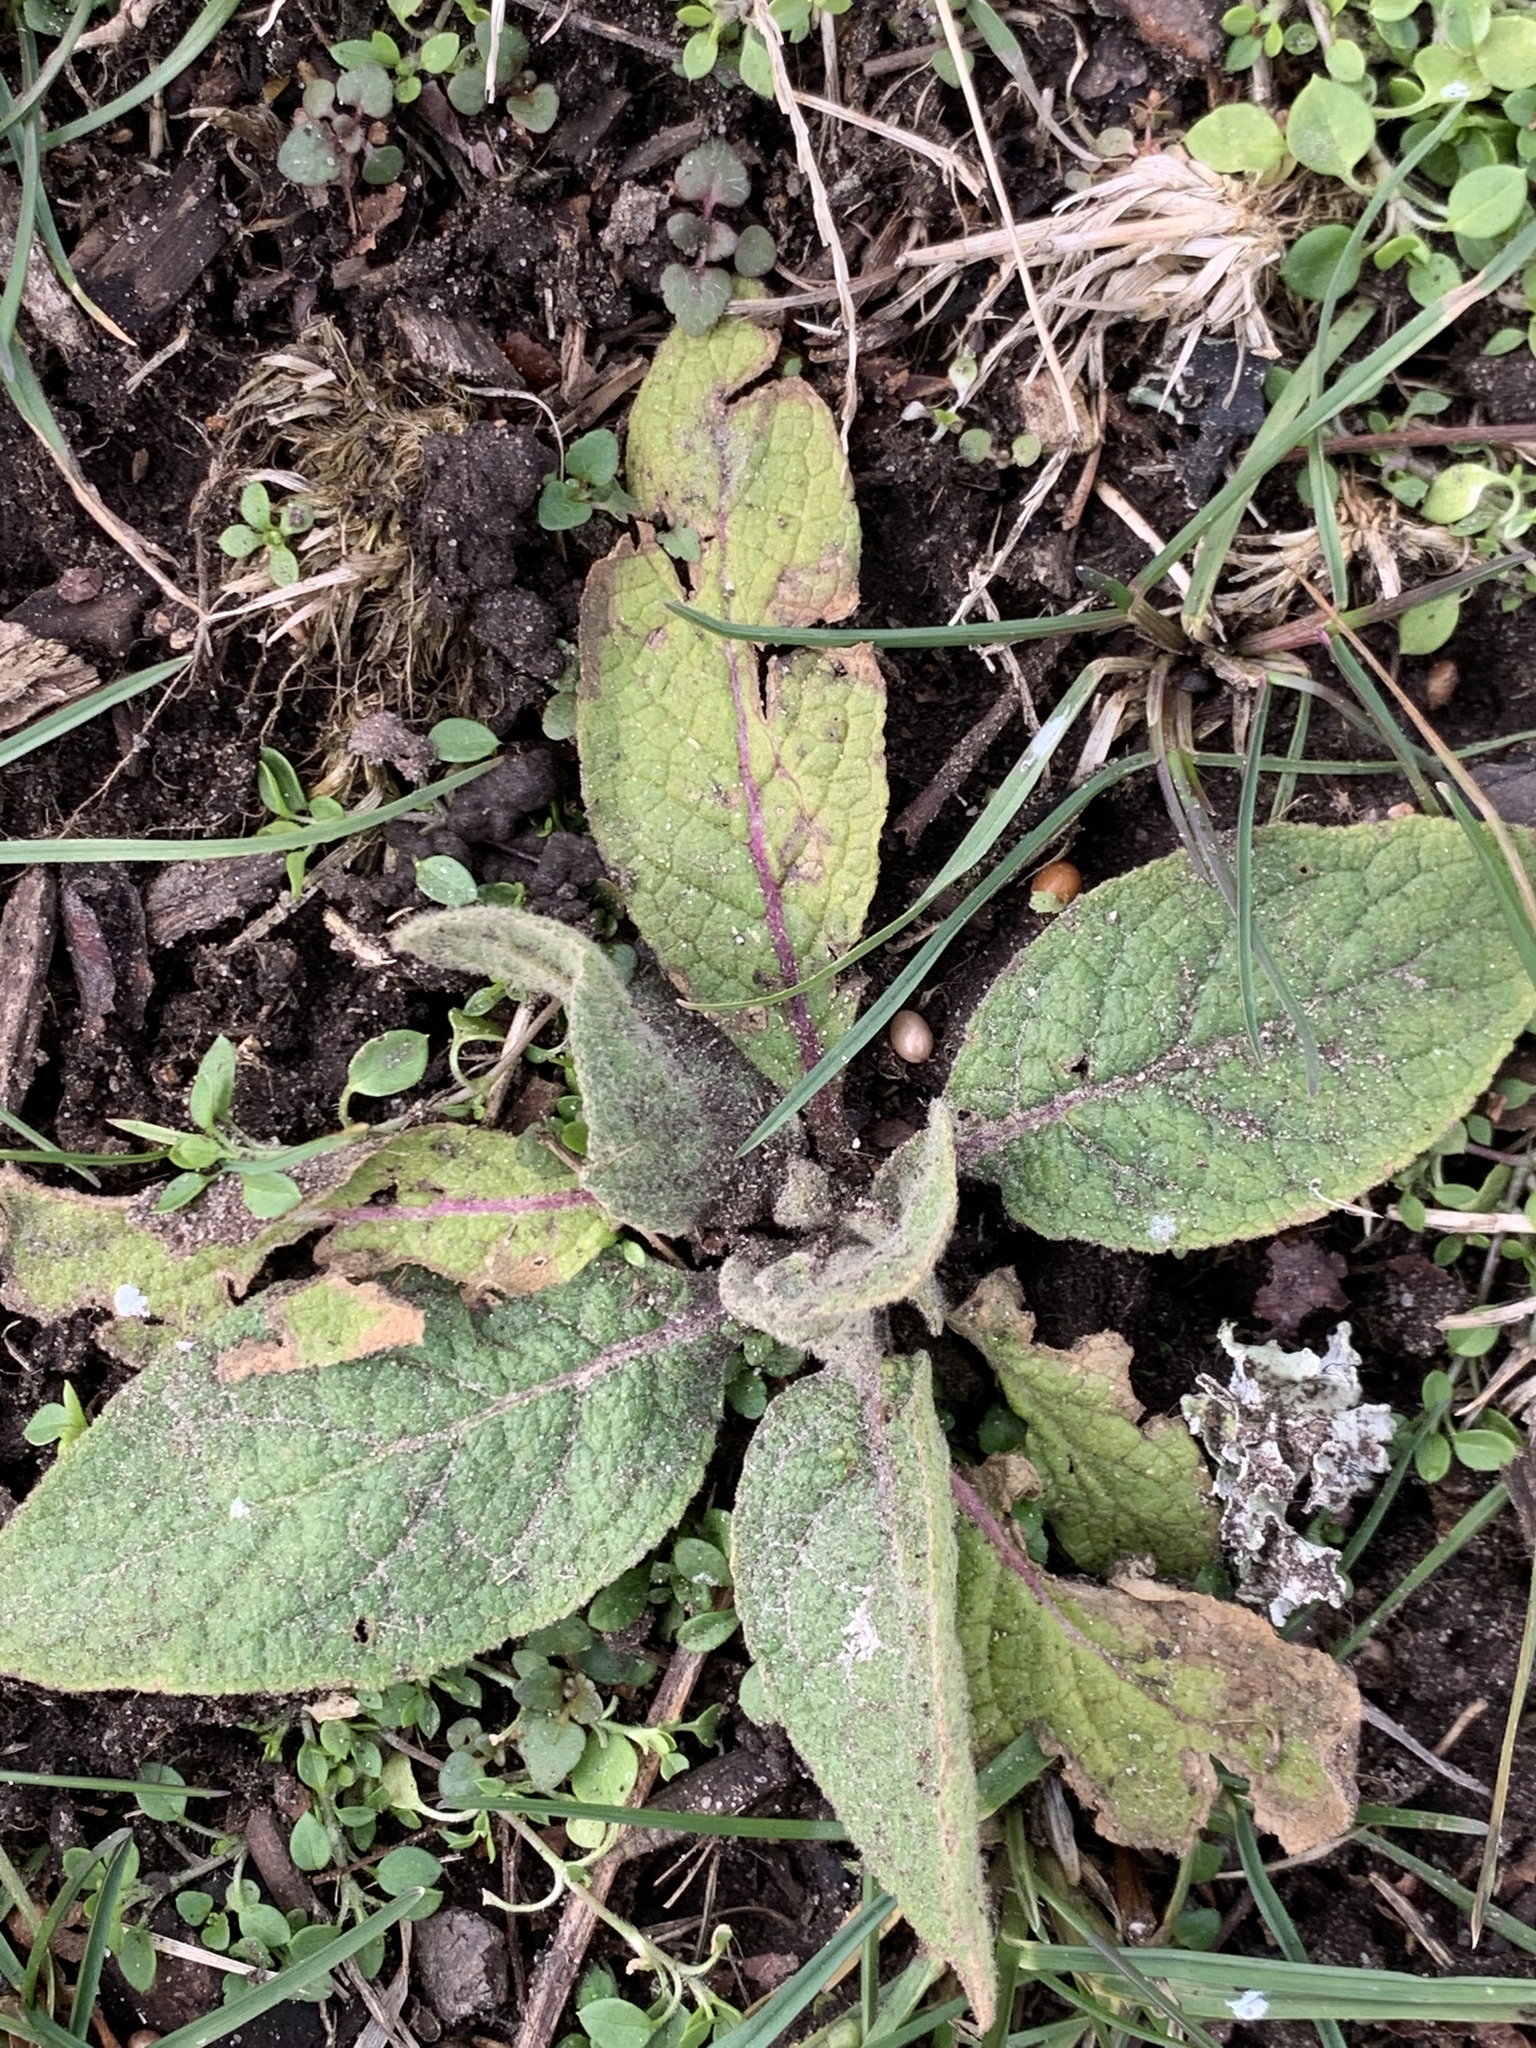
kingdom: Plantae
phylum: Tracheophyta
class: Magnoliopsida
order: Lamiales
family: Scrophulariaceae
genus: Verbascum
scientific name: Verbascum thapsus
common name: Common mullein
